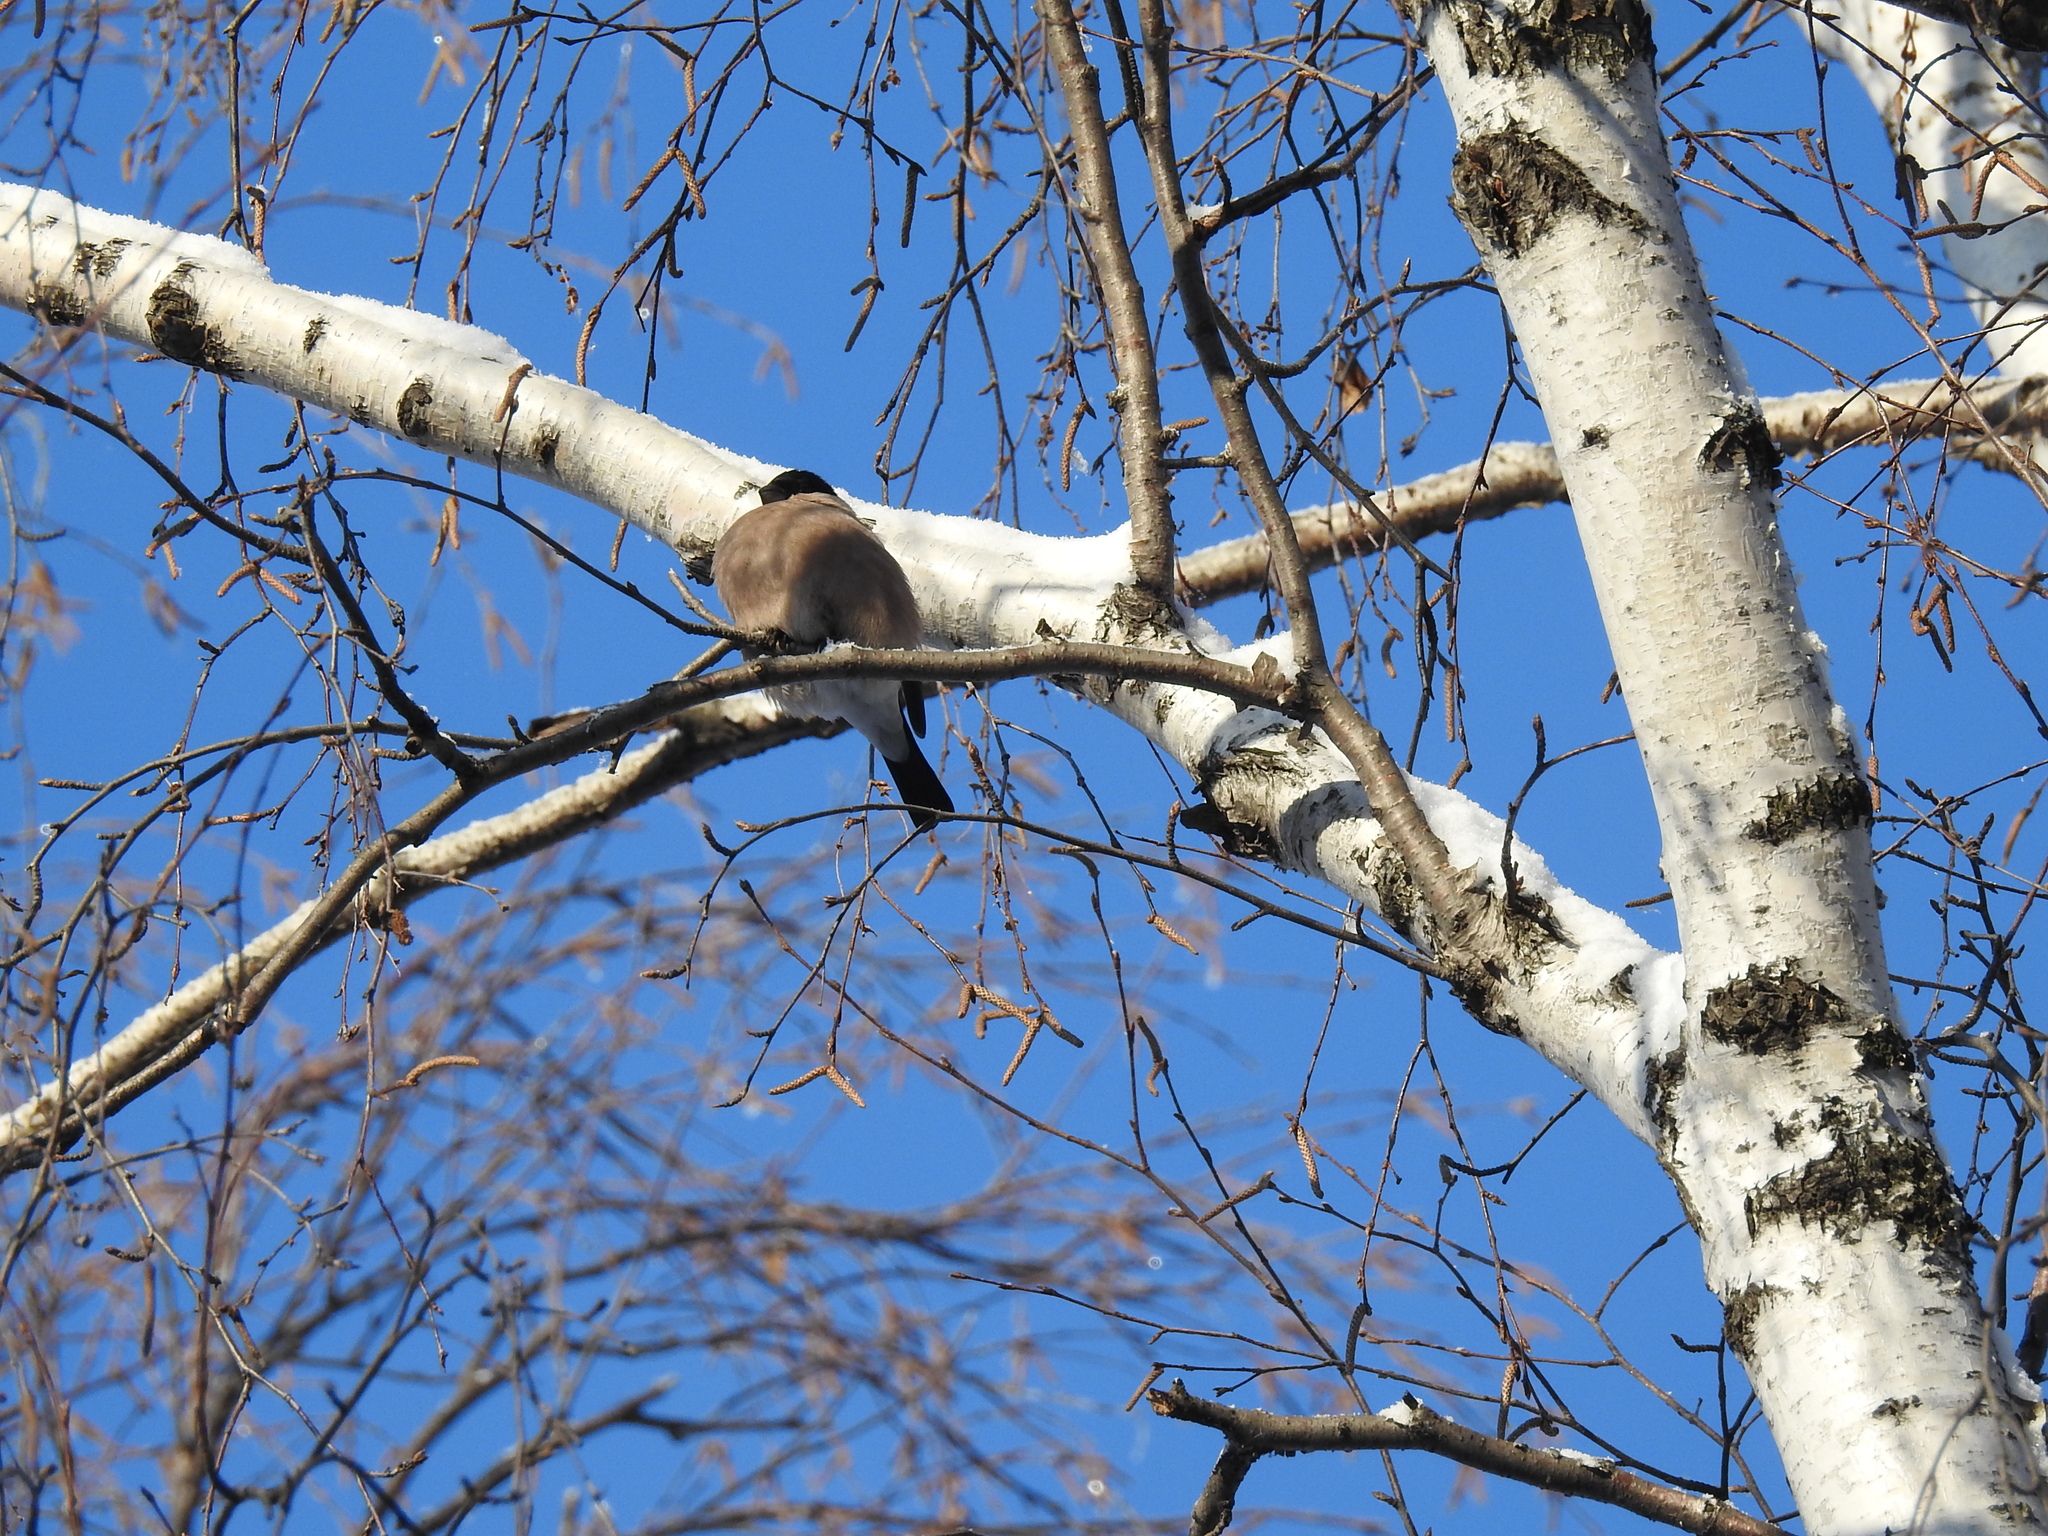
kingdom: Animalia
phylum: Chordata
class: Aves
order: Passeriformes
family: Fringillidae
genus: Pyrrhula
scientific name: Pyrrhula pyrrhula
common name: Eurasian bullfinch
